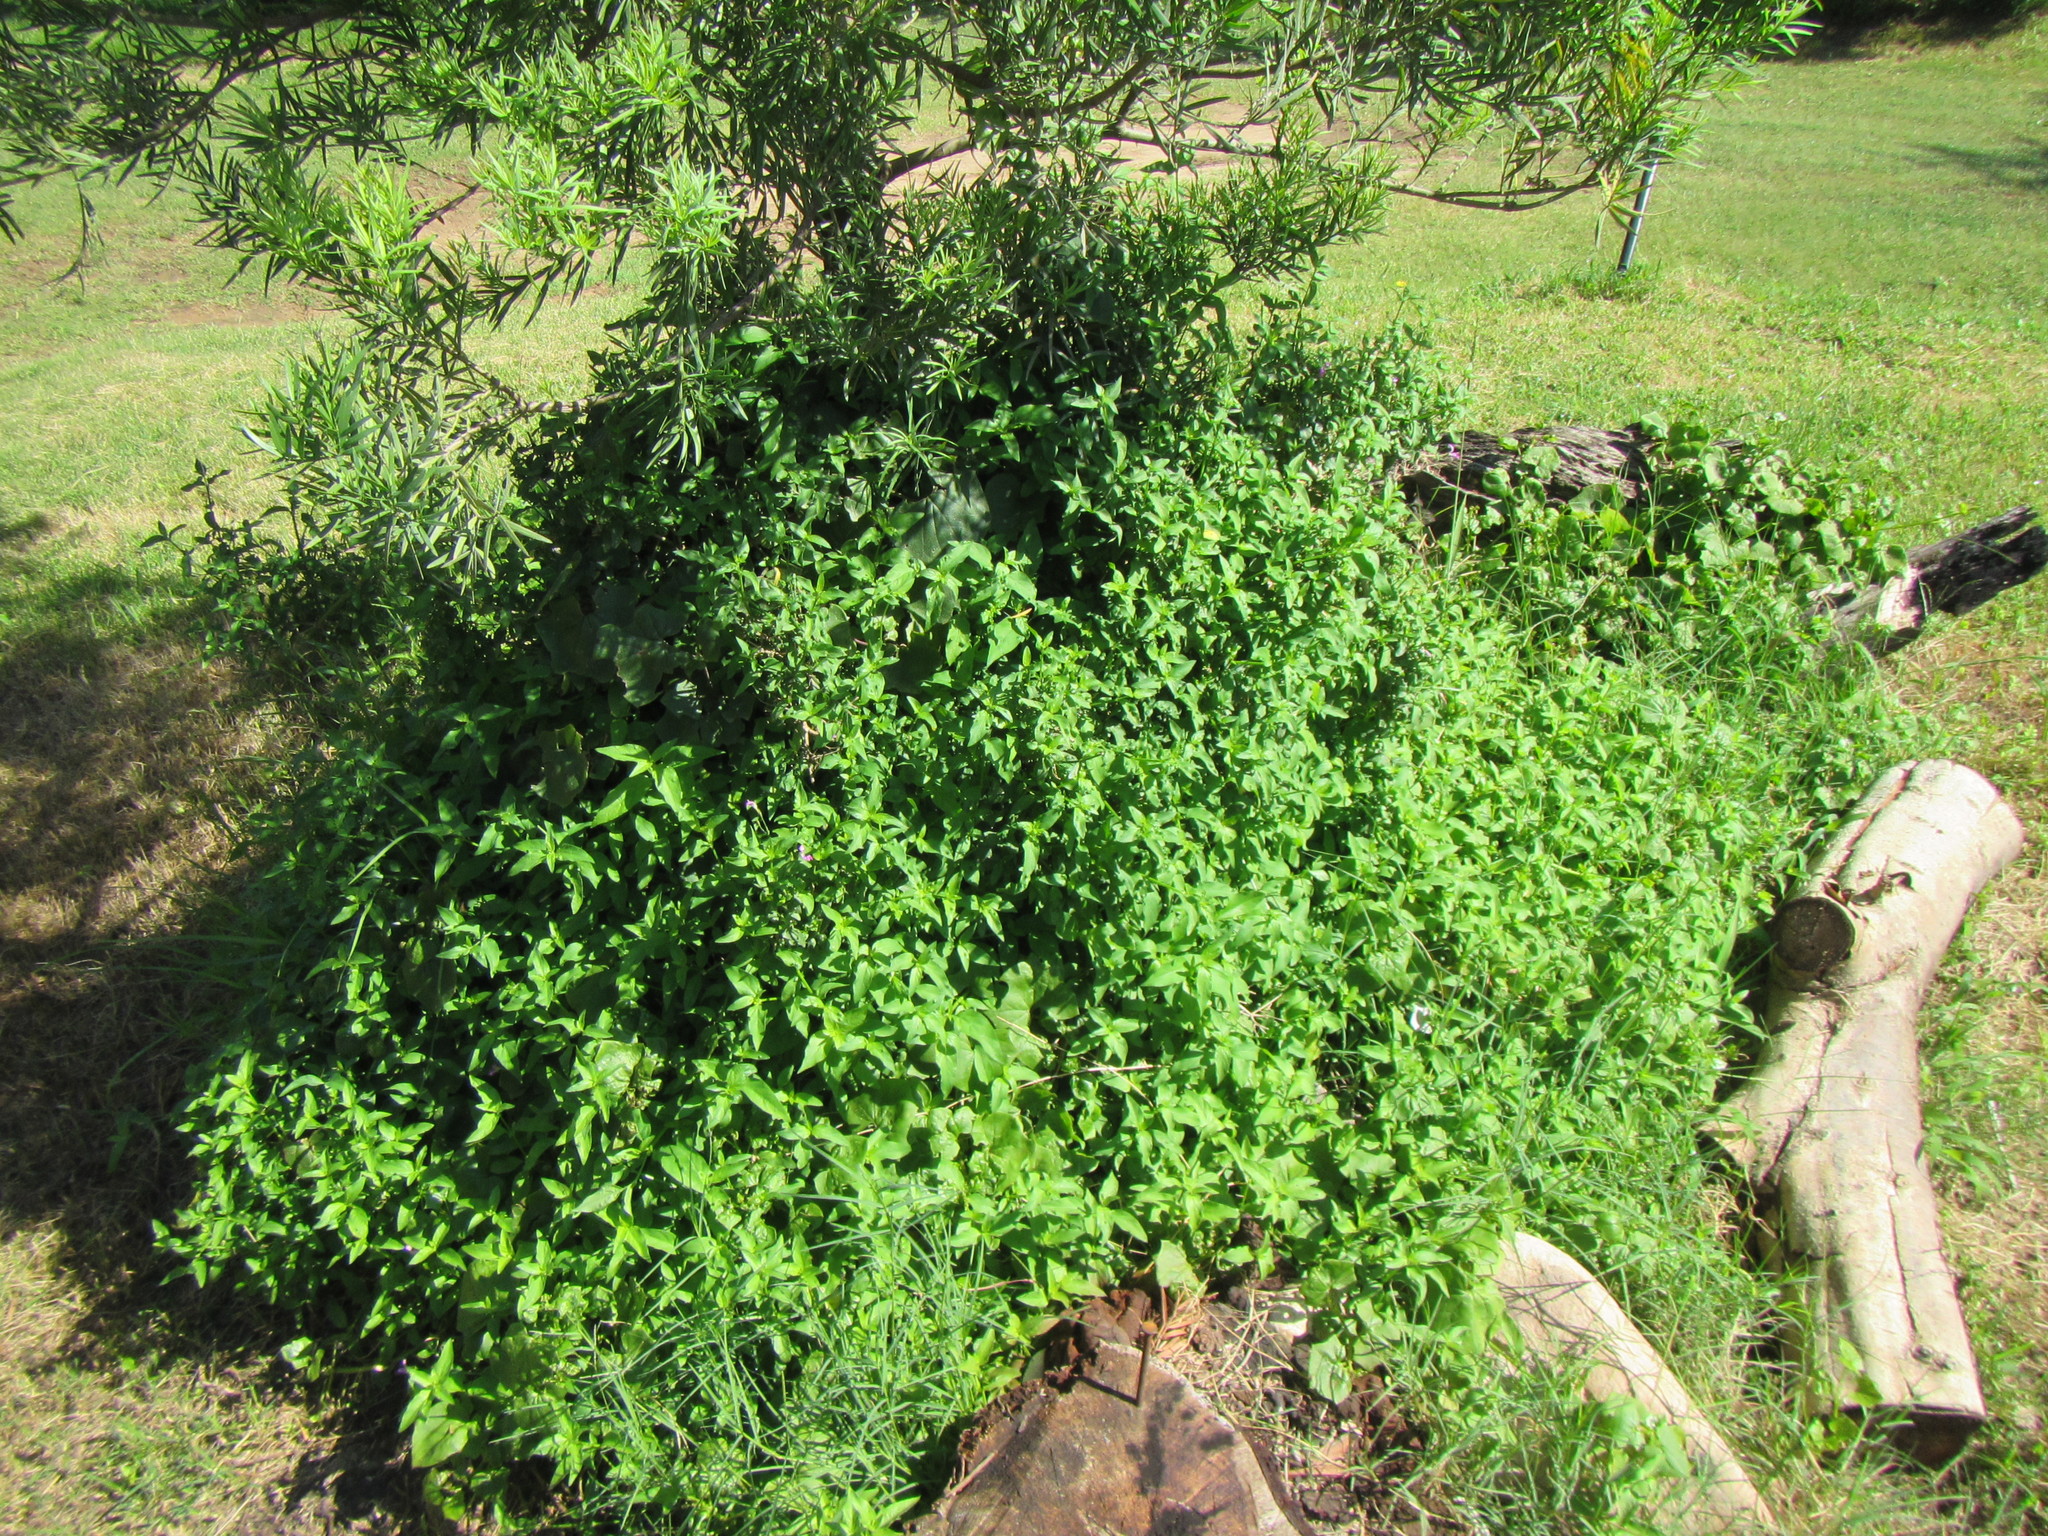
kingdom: Plantae
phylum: Tracheophyta
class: Magnoliopsida
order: Lamiales
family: Acanthaceae
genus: Dicliptera
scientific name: Dicliptera cernua
